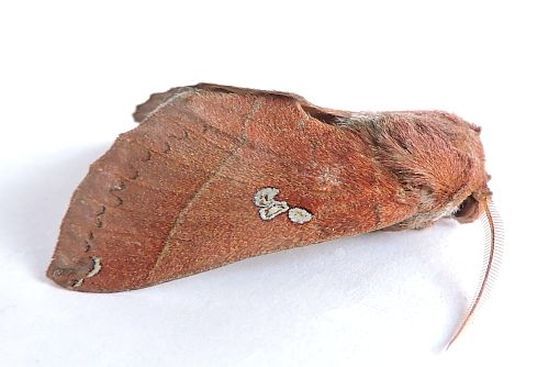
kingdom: Animalia
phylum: Arthropoda
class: Insecta
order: Lepidoptera
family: Notodontidae
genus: Pseudhapigia
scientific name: Pseudhapigia brunnea
